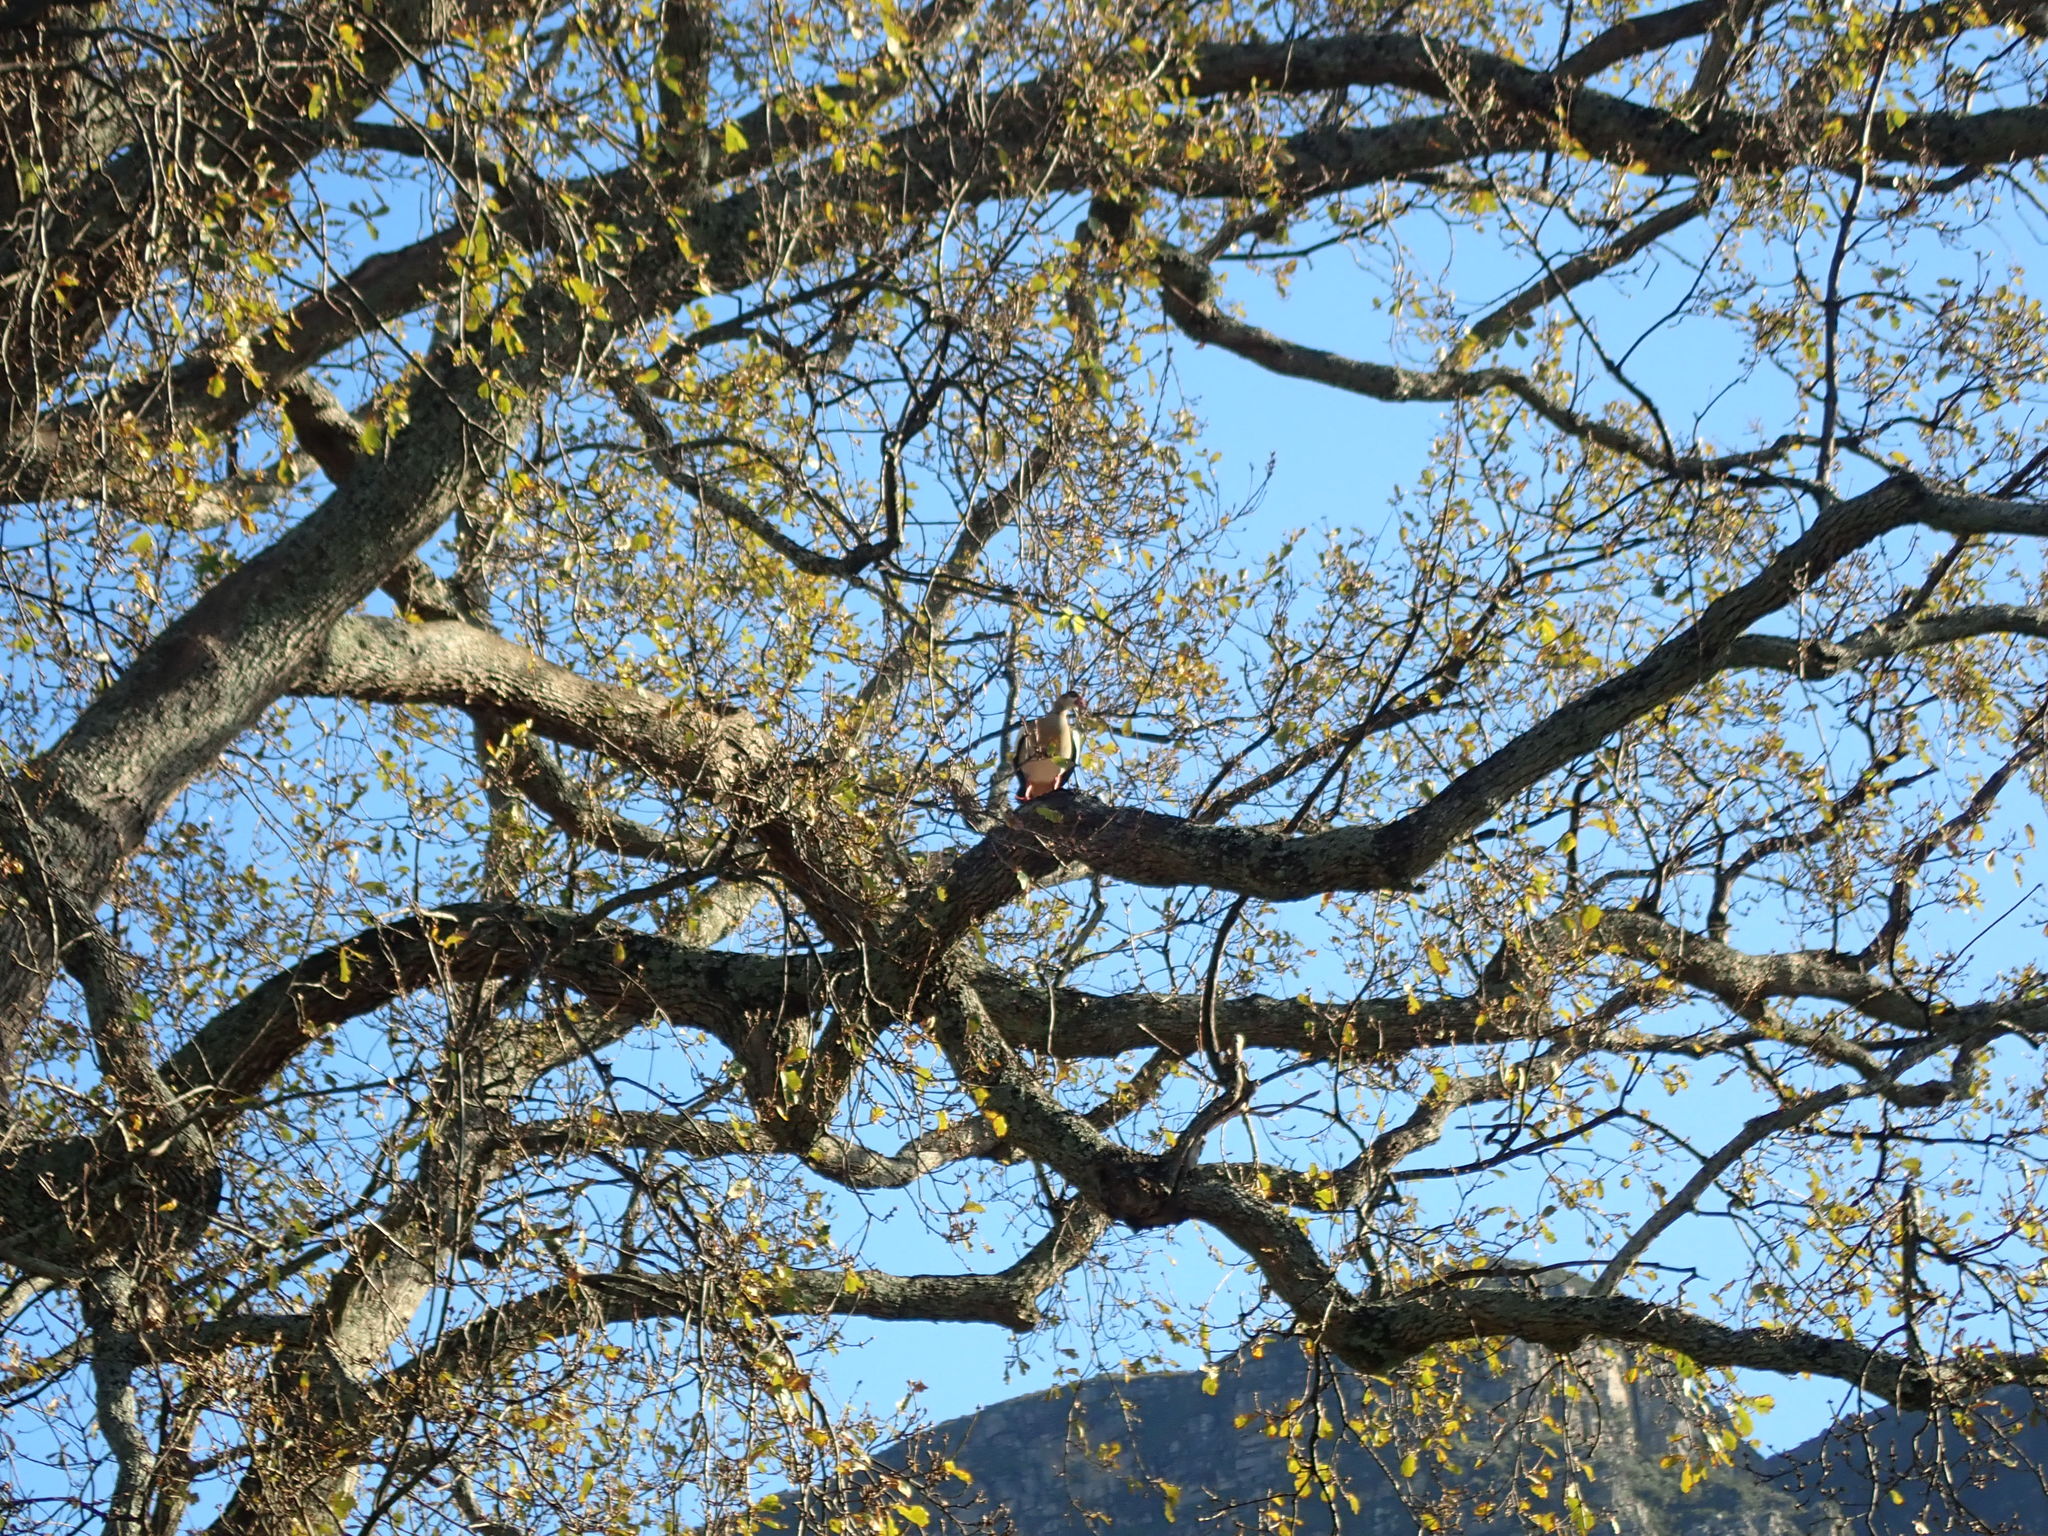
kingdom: Animalia
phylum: Chordata
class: Aves
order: Anseriformes
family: Anatidae
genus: Alopochen
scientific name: Alopochen aegyptiaca
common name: Egyptian goose
